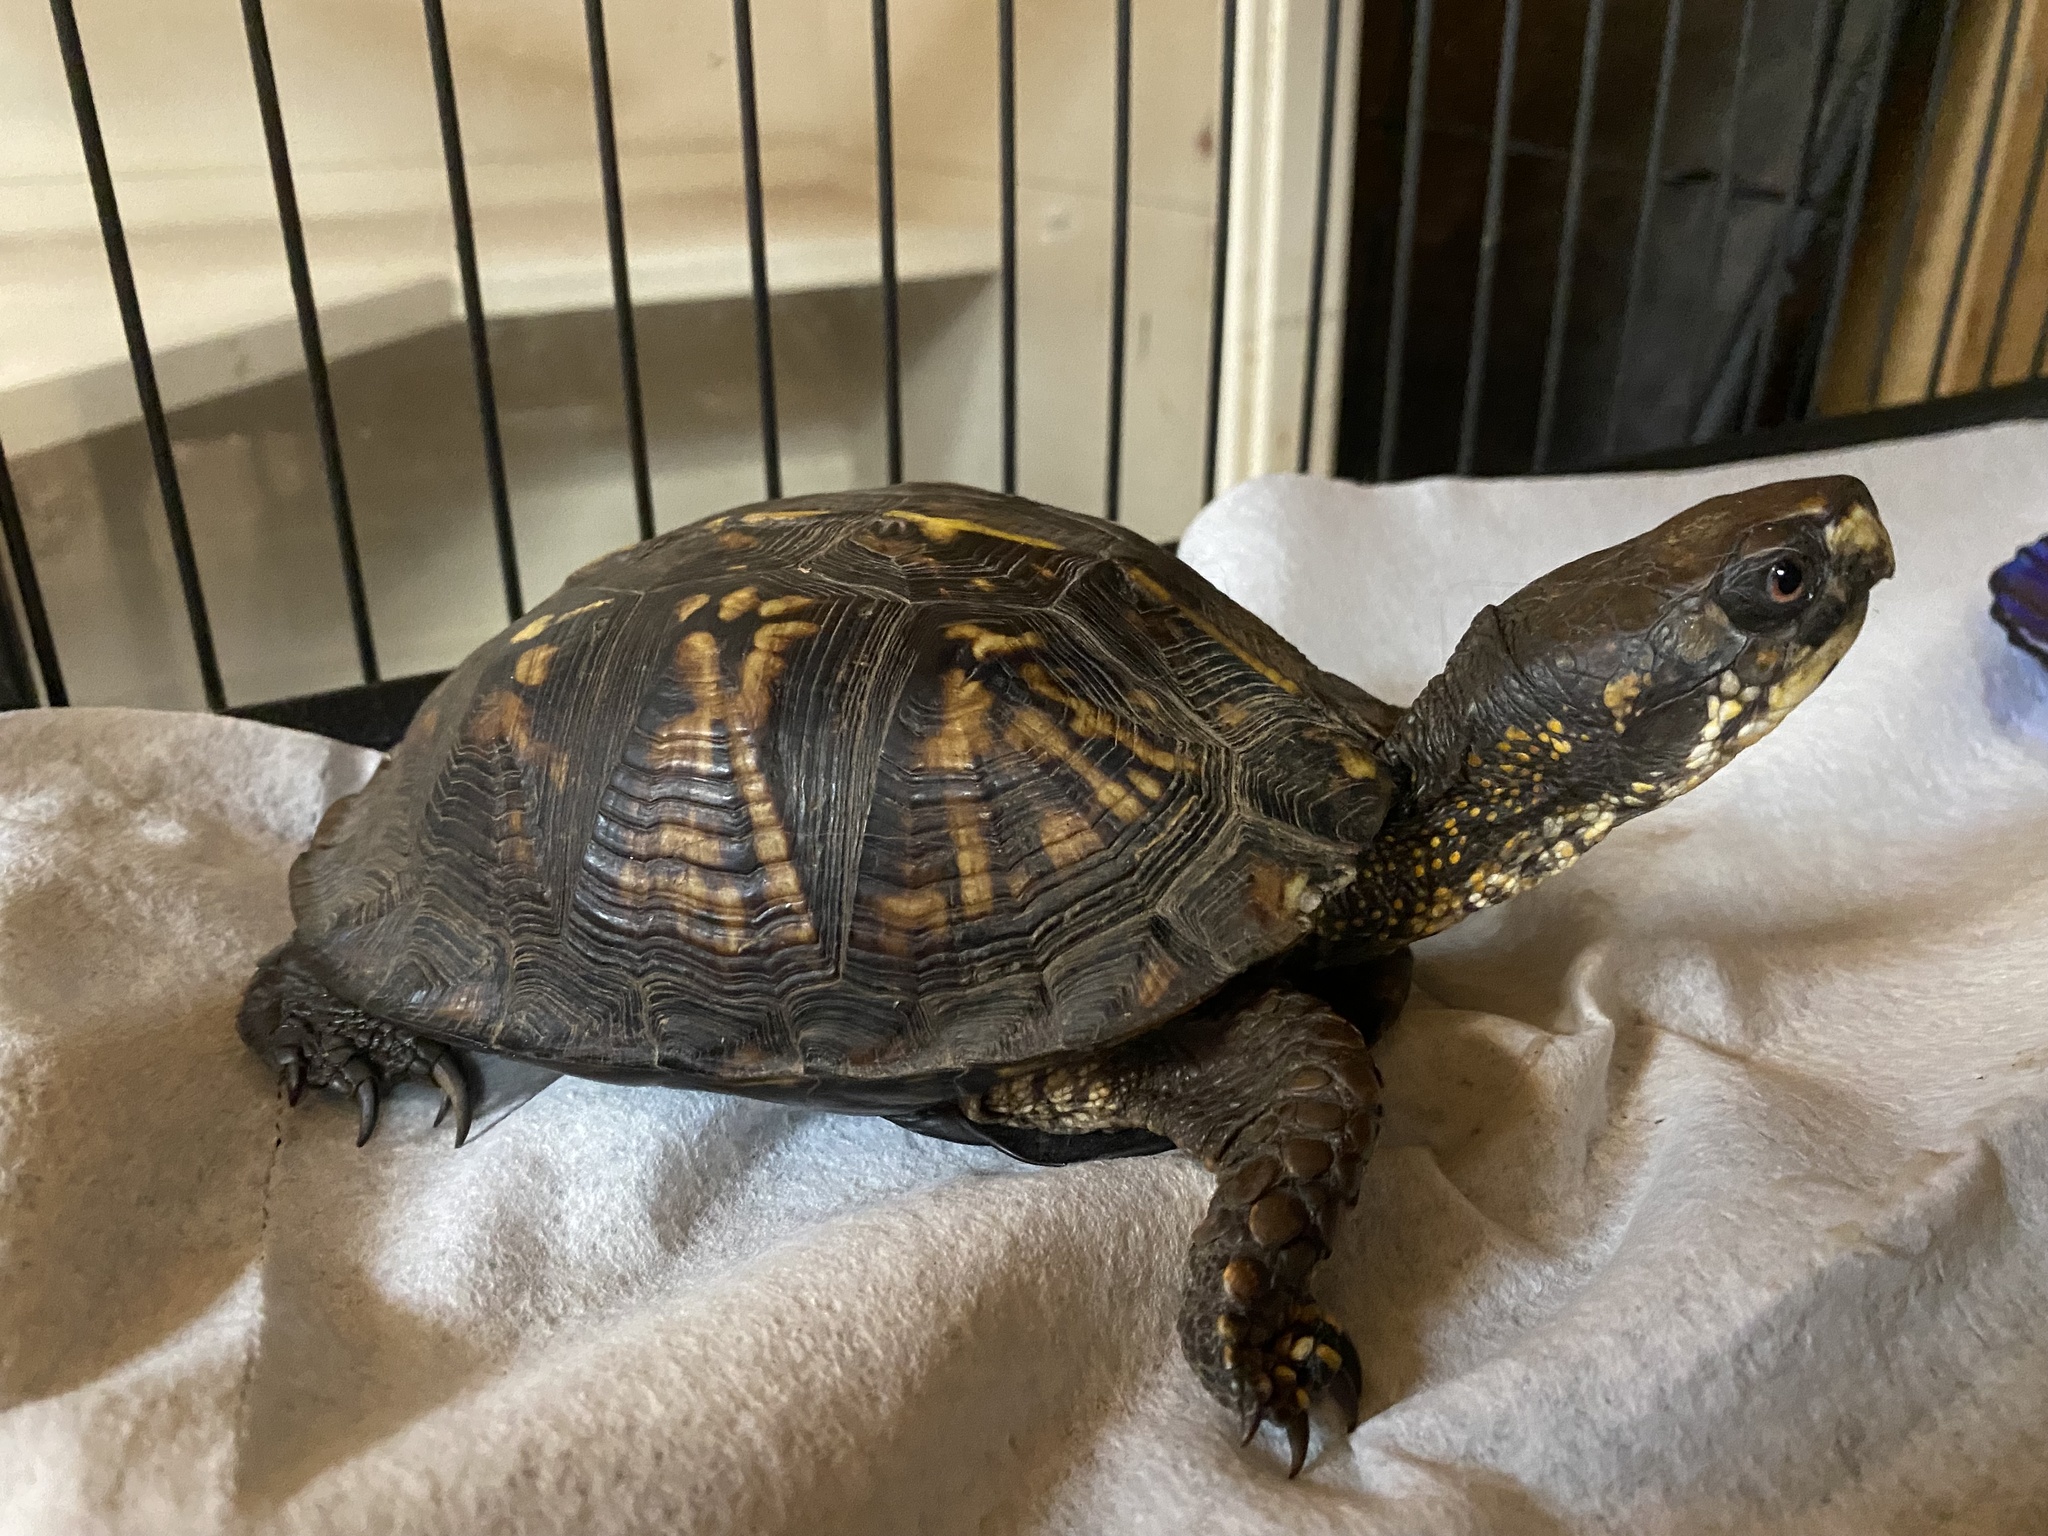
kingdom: Animalia
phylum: Chordata
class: Testudines
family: Emydidae
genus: Terrapene
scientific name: Terrapene carolina
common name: Common box turtle
